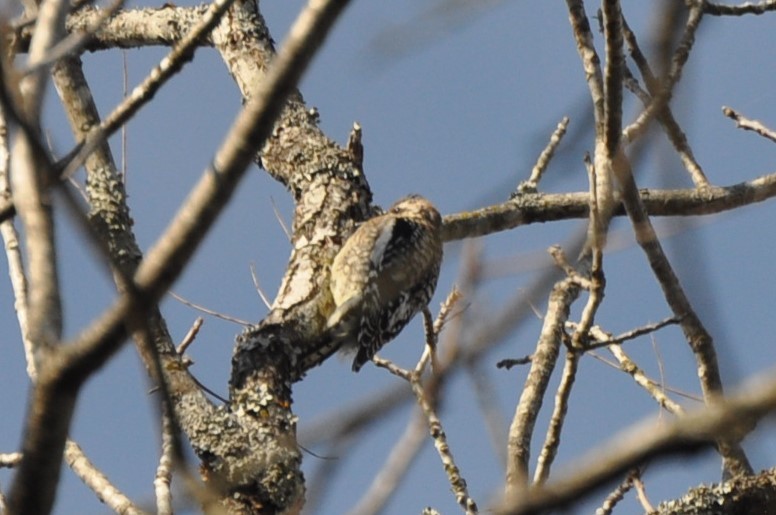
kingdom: Animalia
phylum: Chordata
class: Aves
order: Piciformes
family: Picidae
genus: Sphyrapicus
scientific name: Sphyrapicus varius
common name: Yellow-bellied sapsucker
